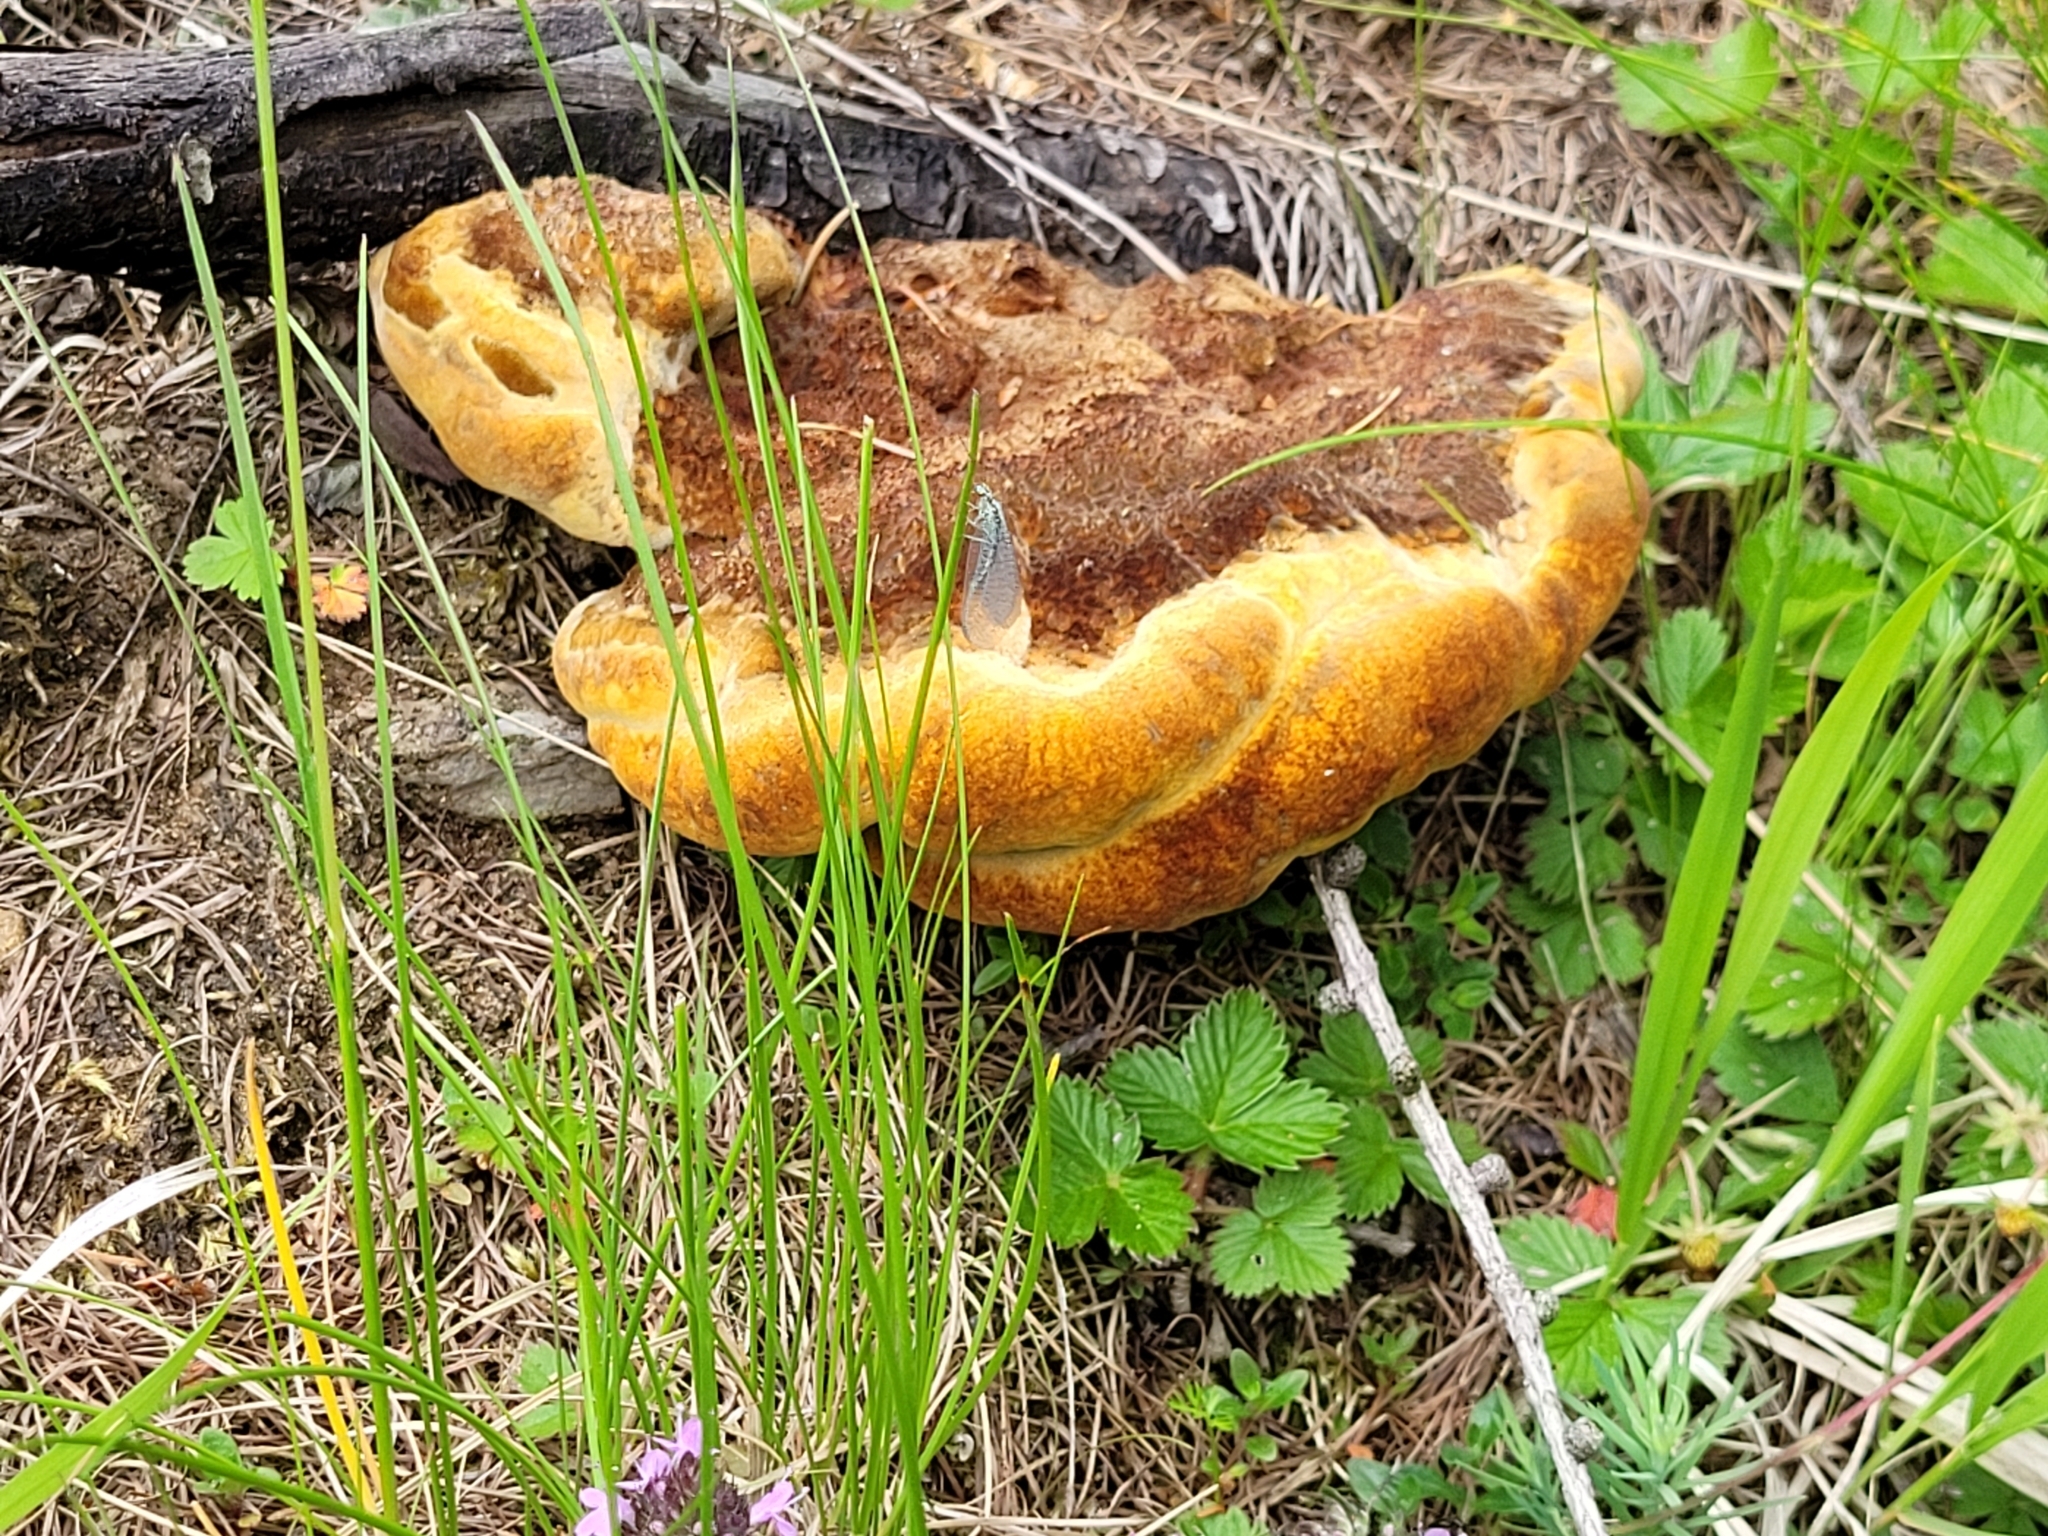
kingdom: Fungi
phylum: Basidiomycota
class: Agaricomycetes
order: Polyporales
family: Laetiporaceae
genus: Phaeolus
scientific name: Phaeolus schweinitzii
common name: Dyer's mazegill
